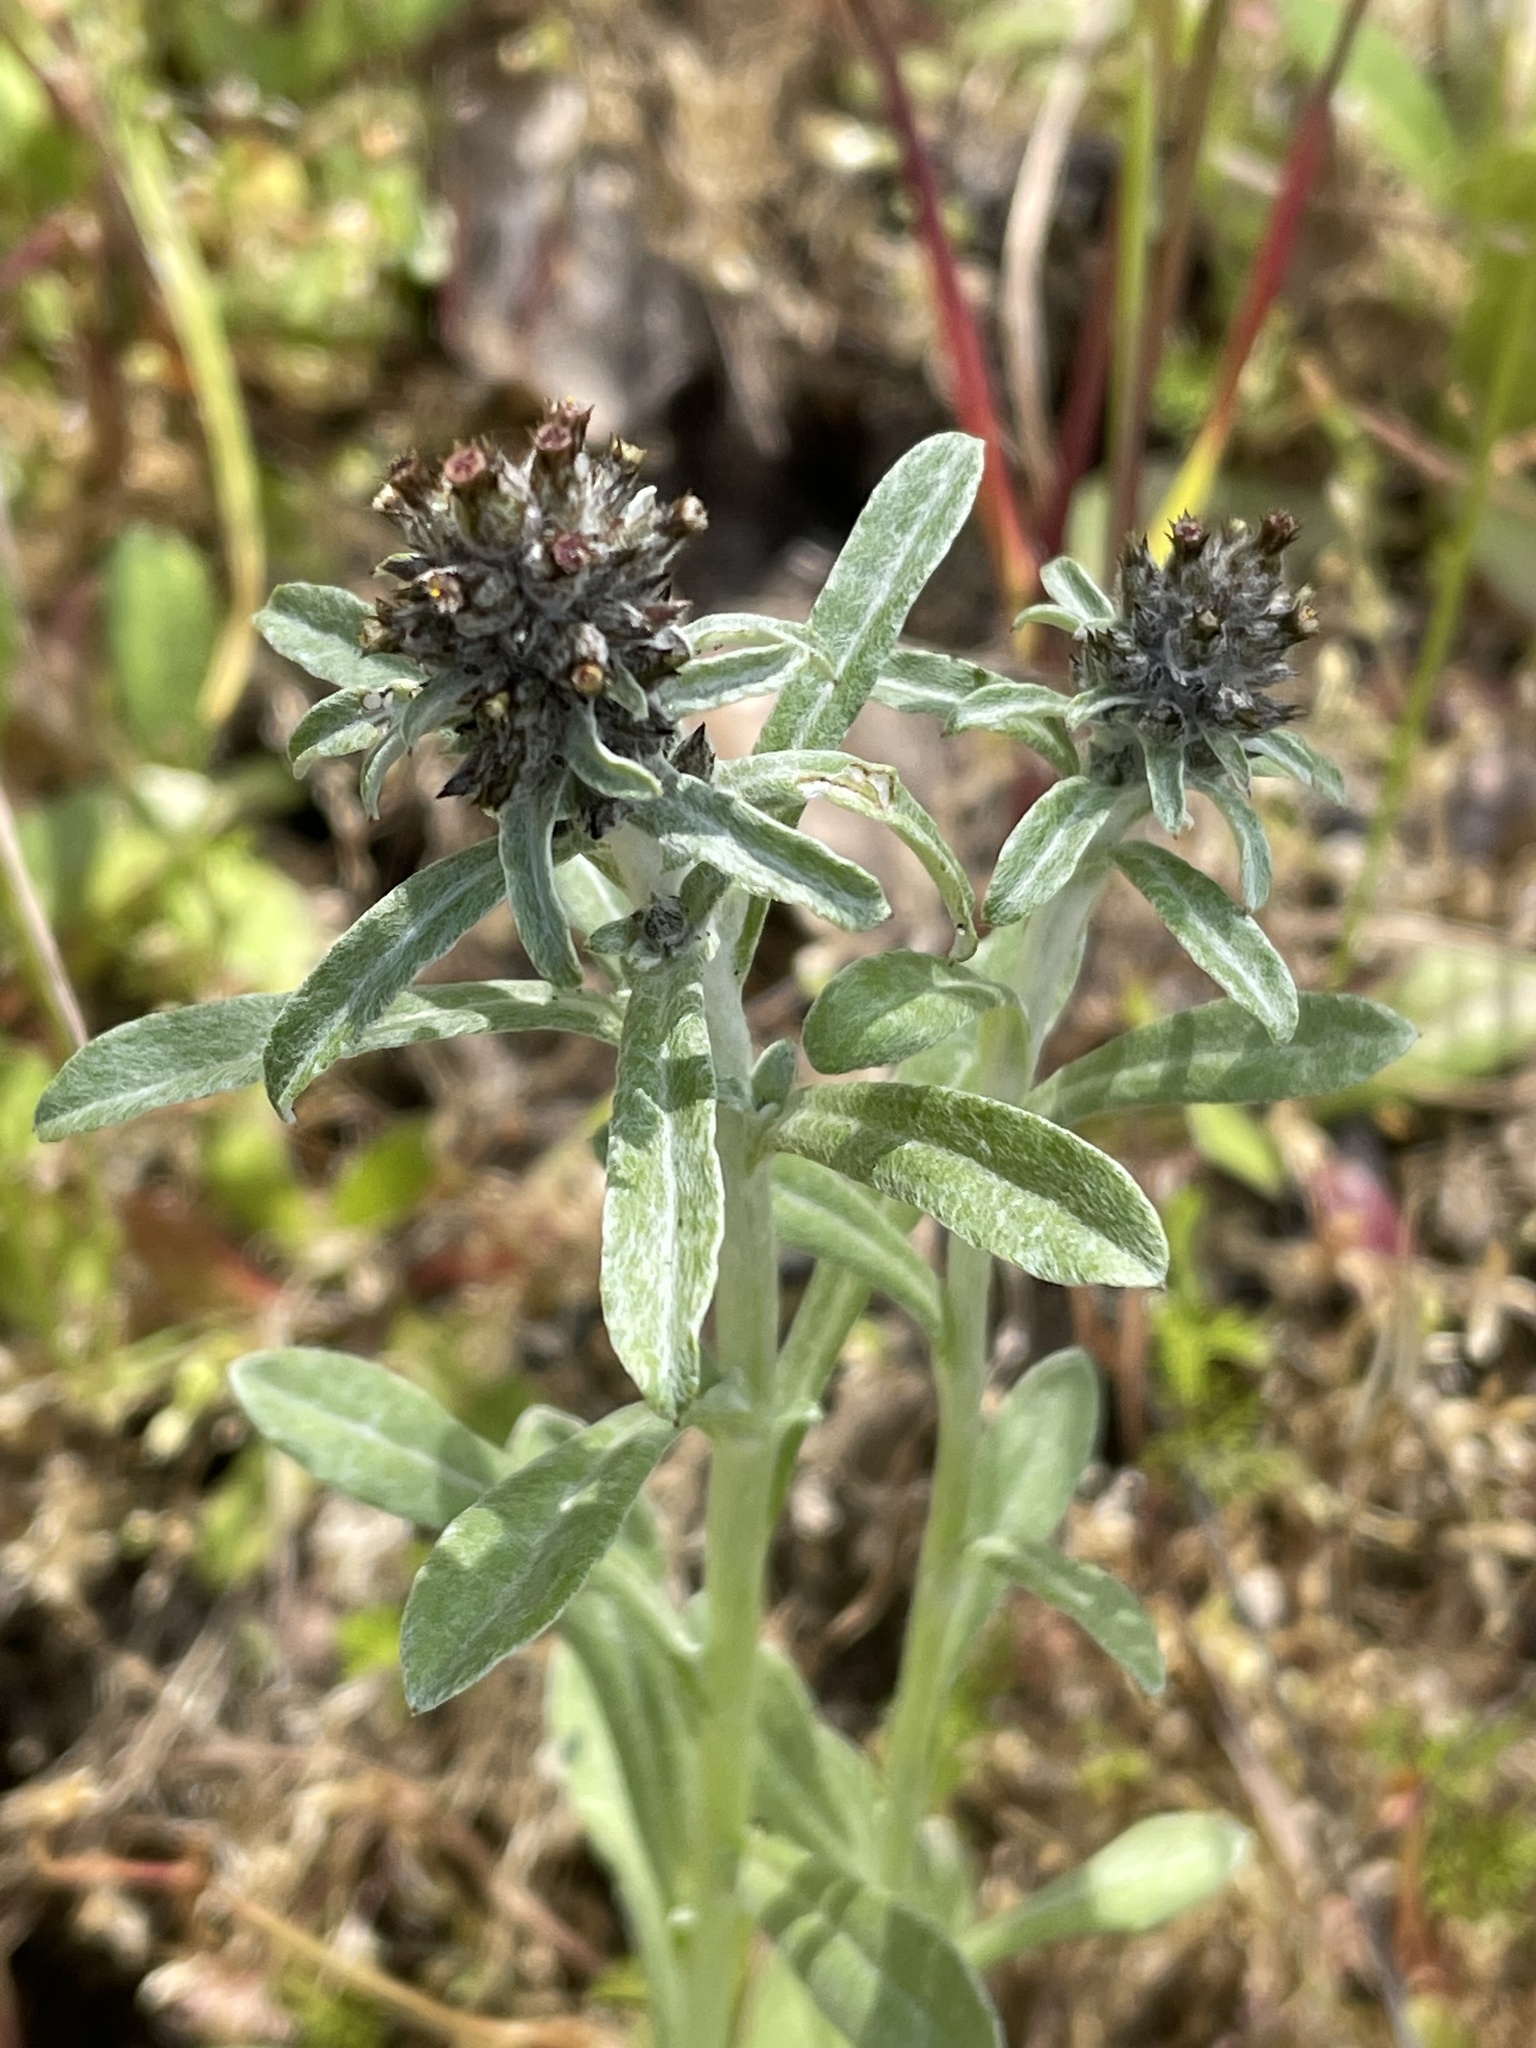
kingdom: Plantae
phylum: Tracheophyta
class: Magnoliopsida
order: Asterales
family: Asteraceae
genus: Gamochaeta
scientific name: Gamochaeta ustulata
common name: Pacific cudweed
